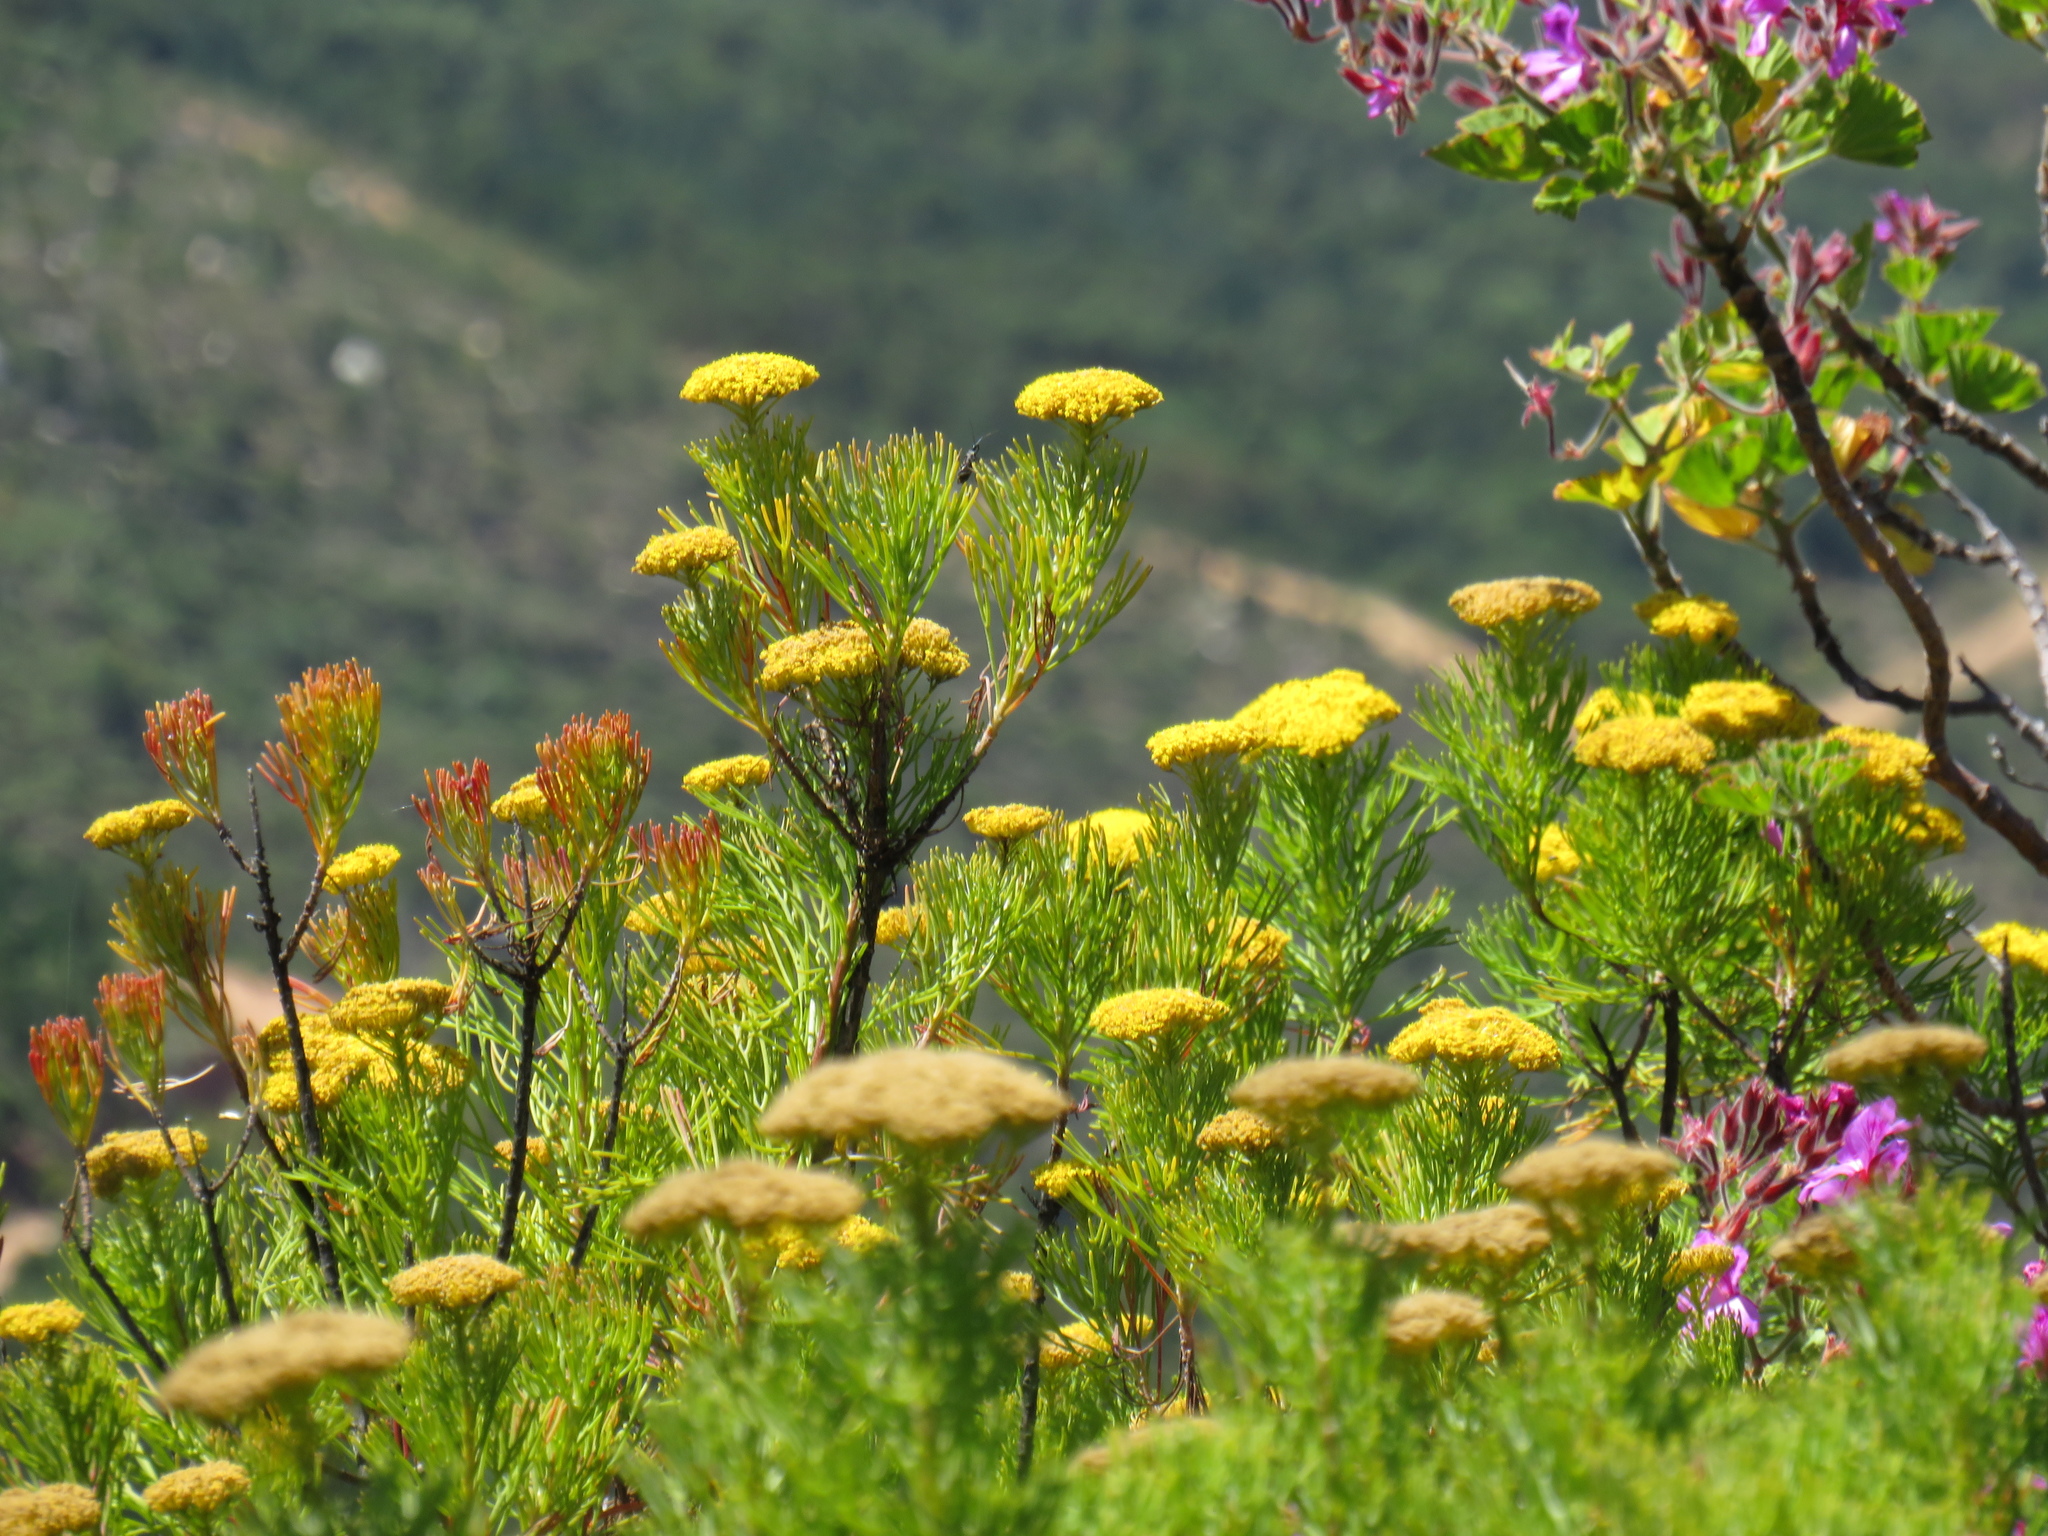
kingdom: Plantae
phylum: Tracheophyta
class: Magnoliopsida
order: Asterales
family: Asteraceae
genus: Hymenolepis
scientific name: Hymenolepis crithmifolia
